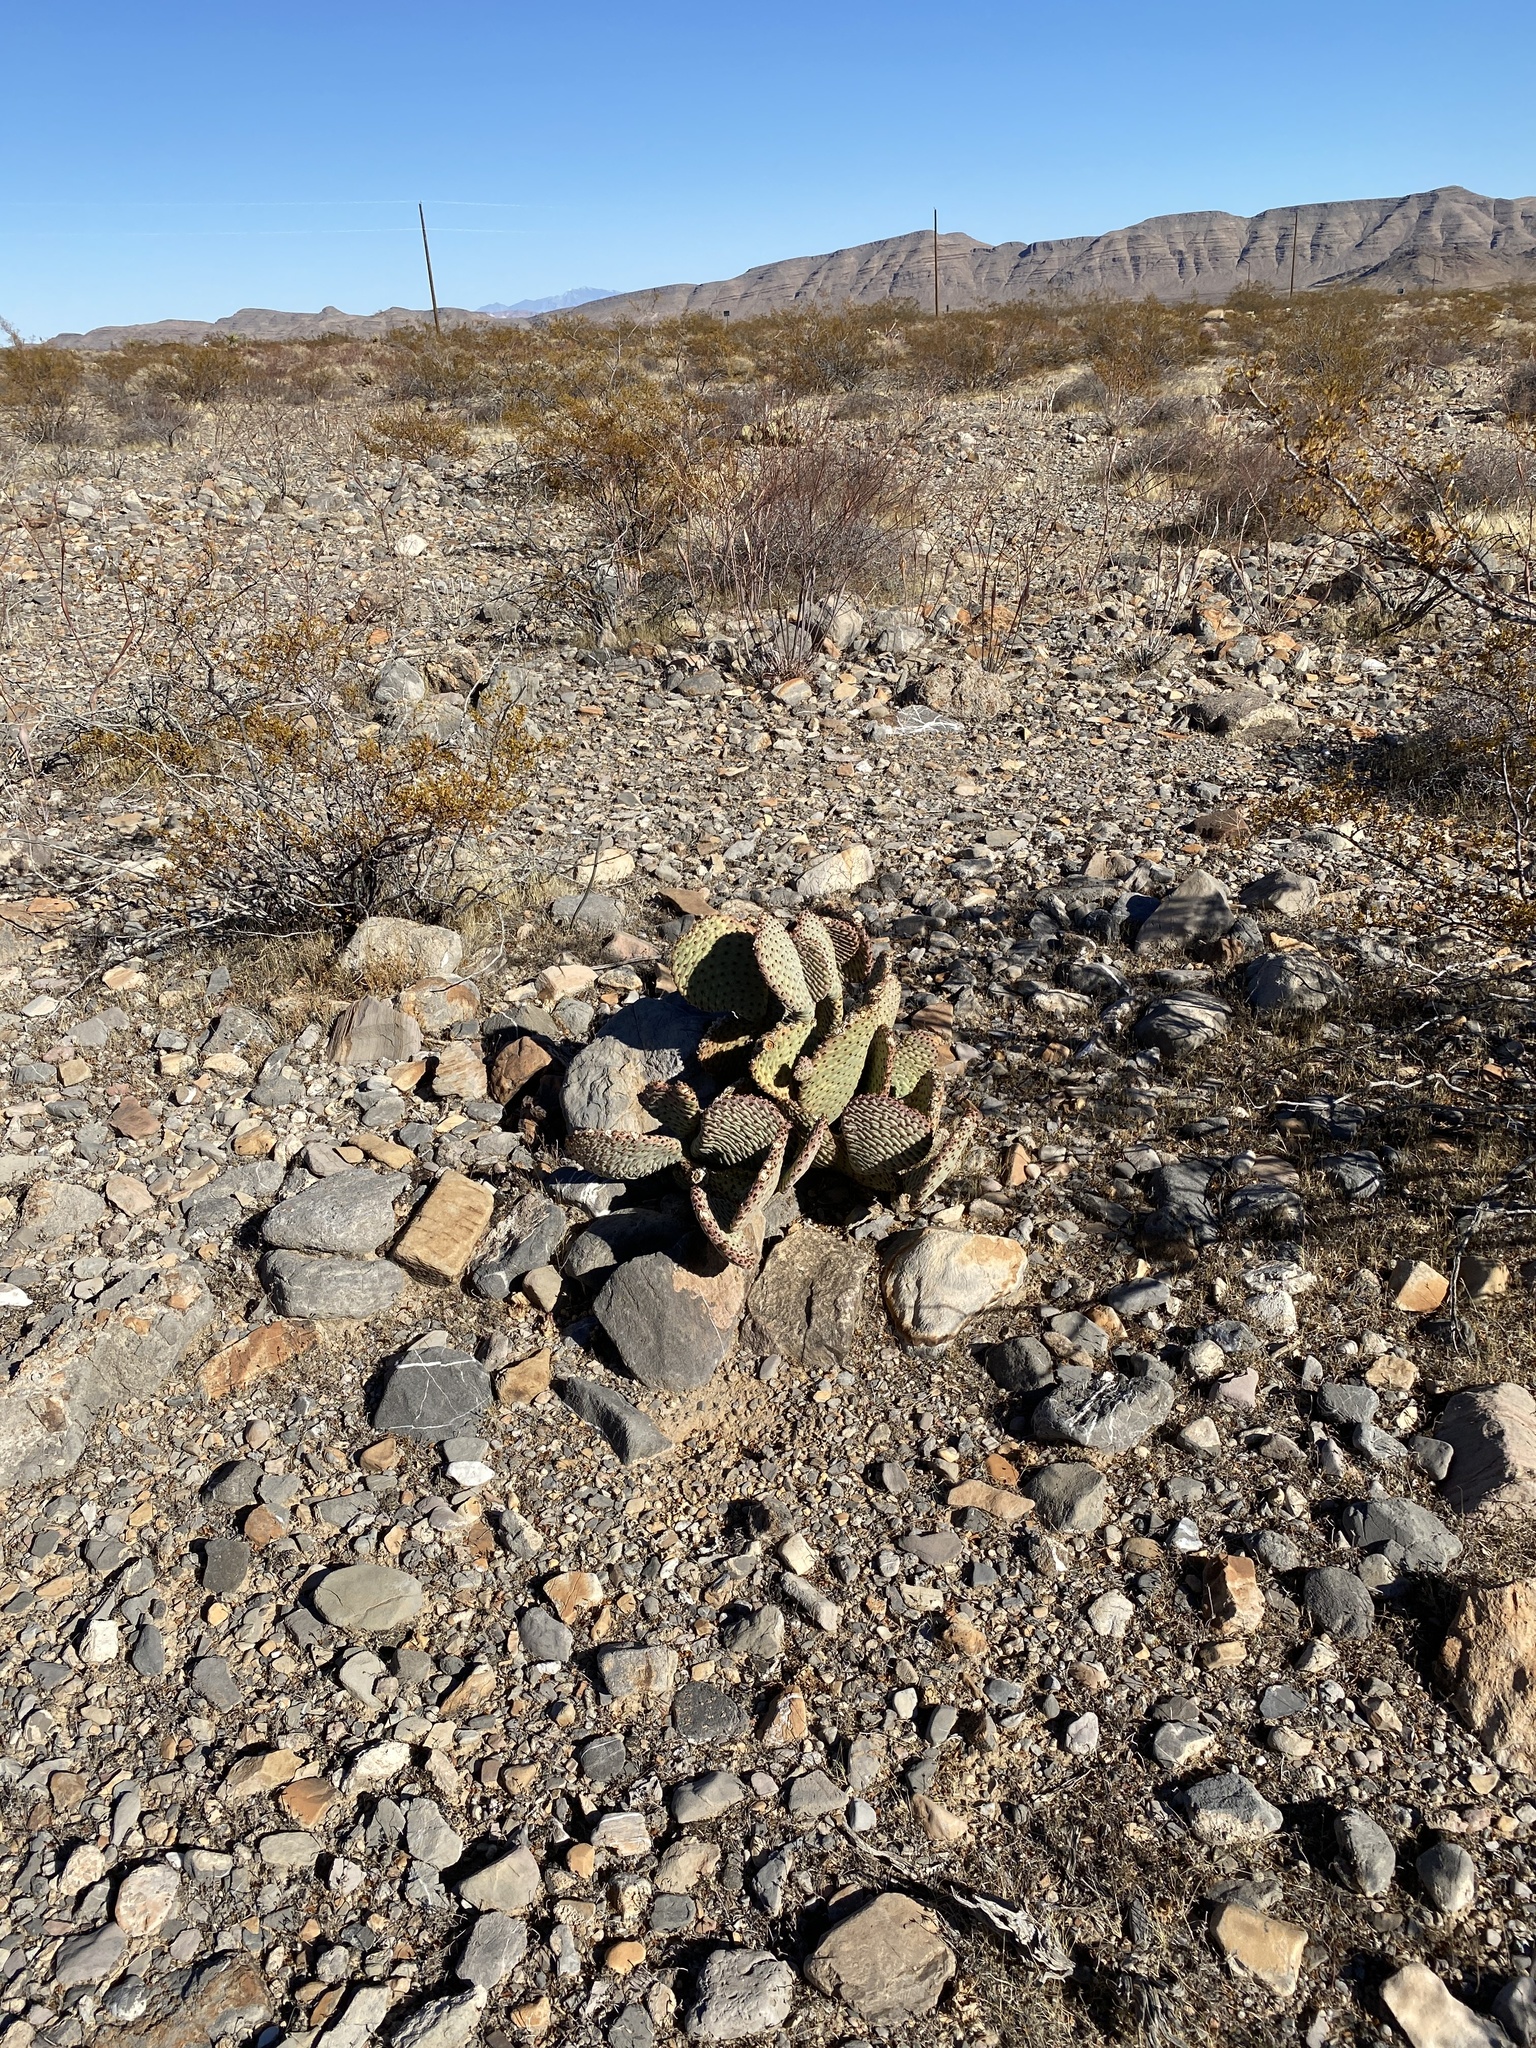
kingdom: Plantae
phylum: Tracheophyta
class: Magnoliopsida
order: Caryophyllales
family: Cactaceae
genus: Opuntia
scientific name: Opuntia basilaris
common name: Beavertail prickly-pear
